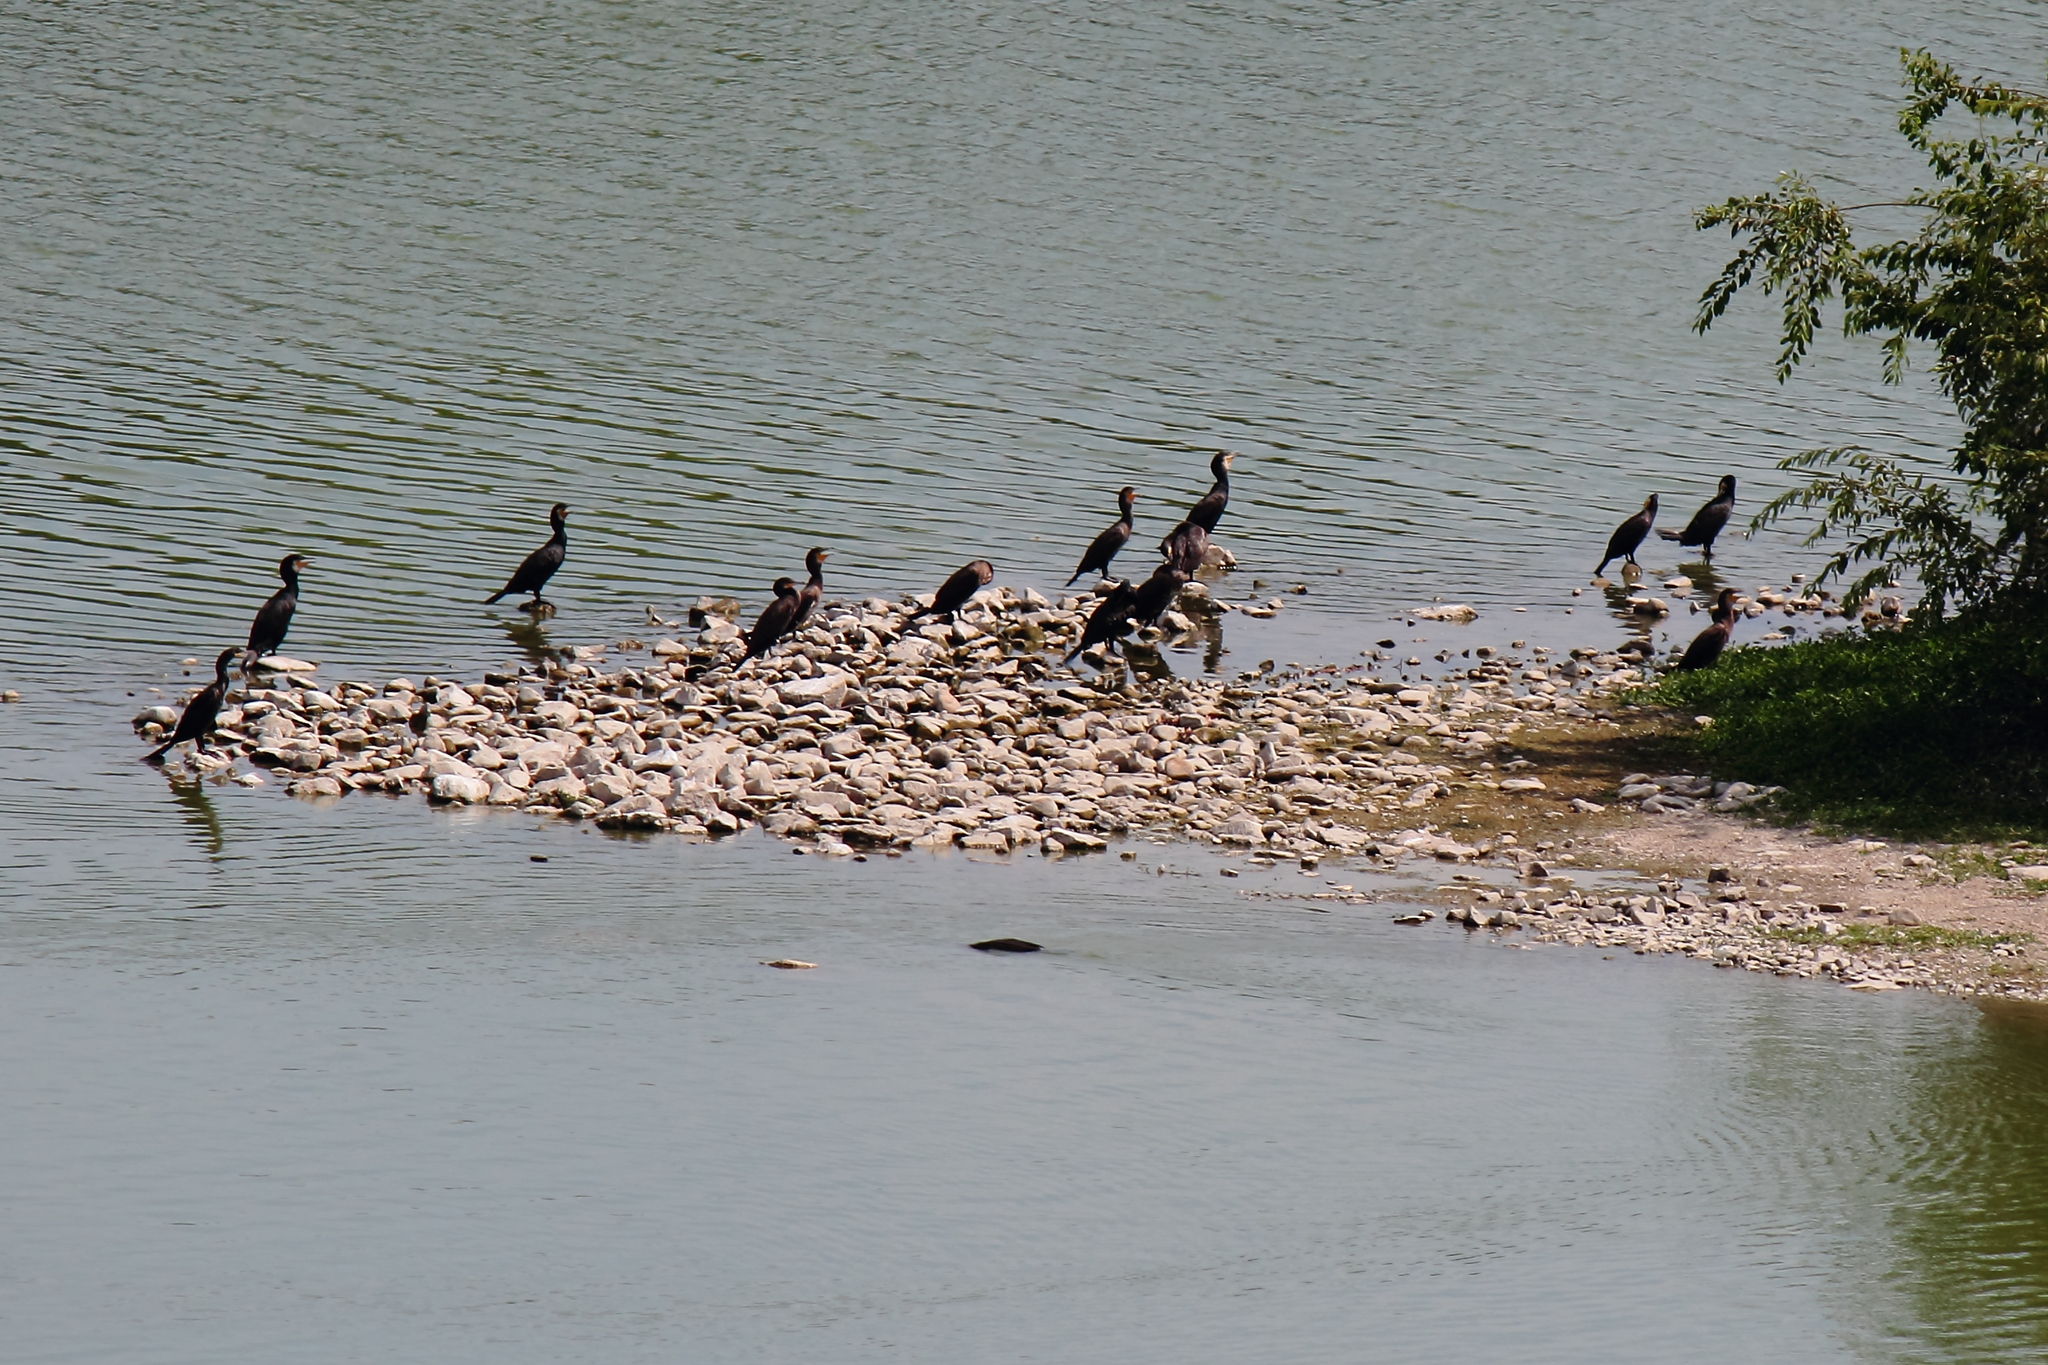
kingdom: Animalia
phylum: Chordata
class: Aves
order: Suliformes
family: Phalacrocoracidae
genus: Phalacrocorax
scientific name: Phalacrocorax carbo
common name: Great cormorant
